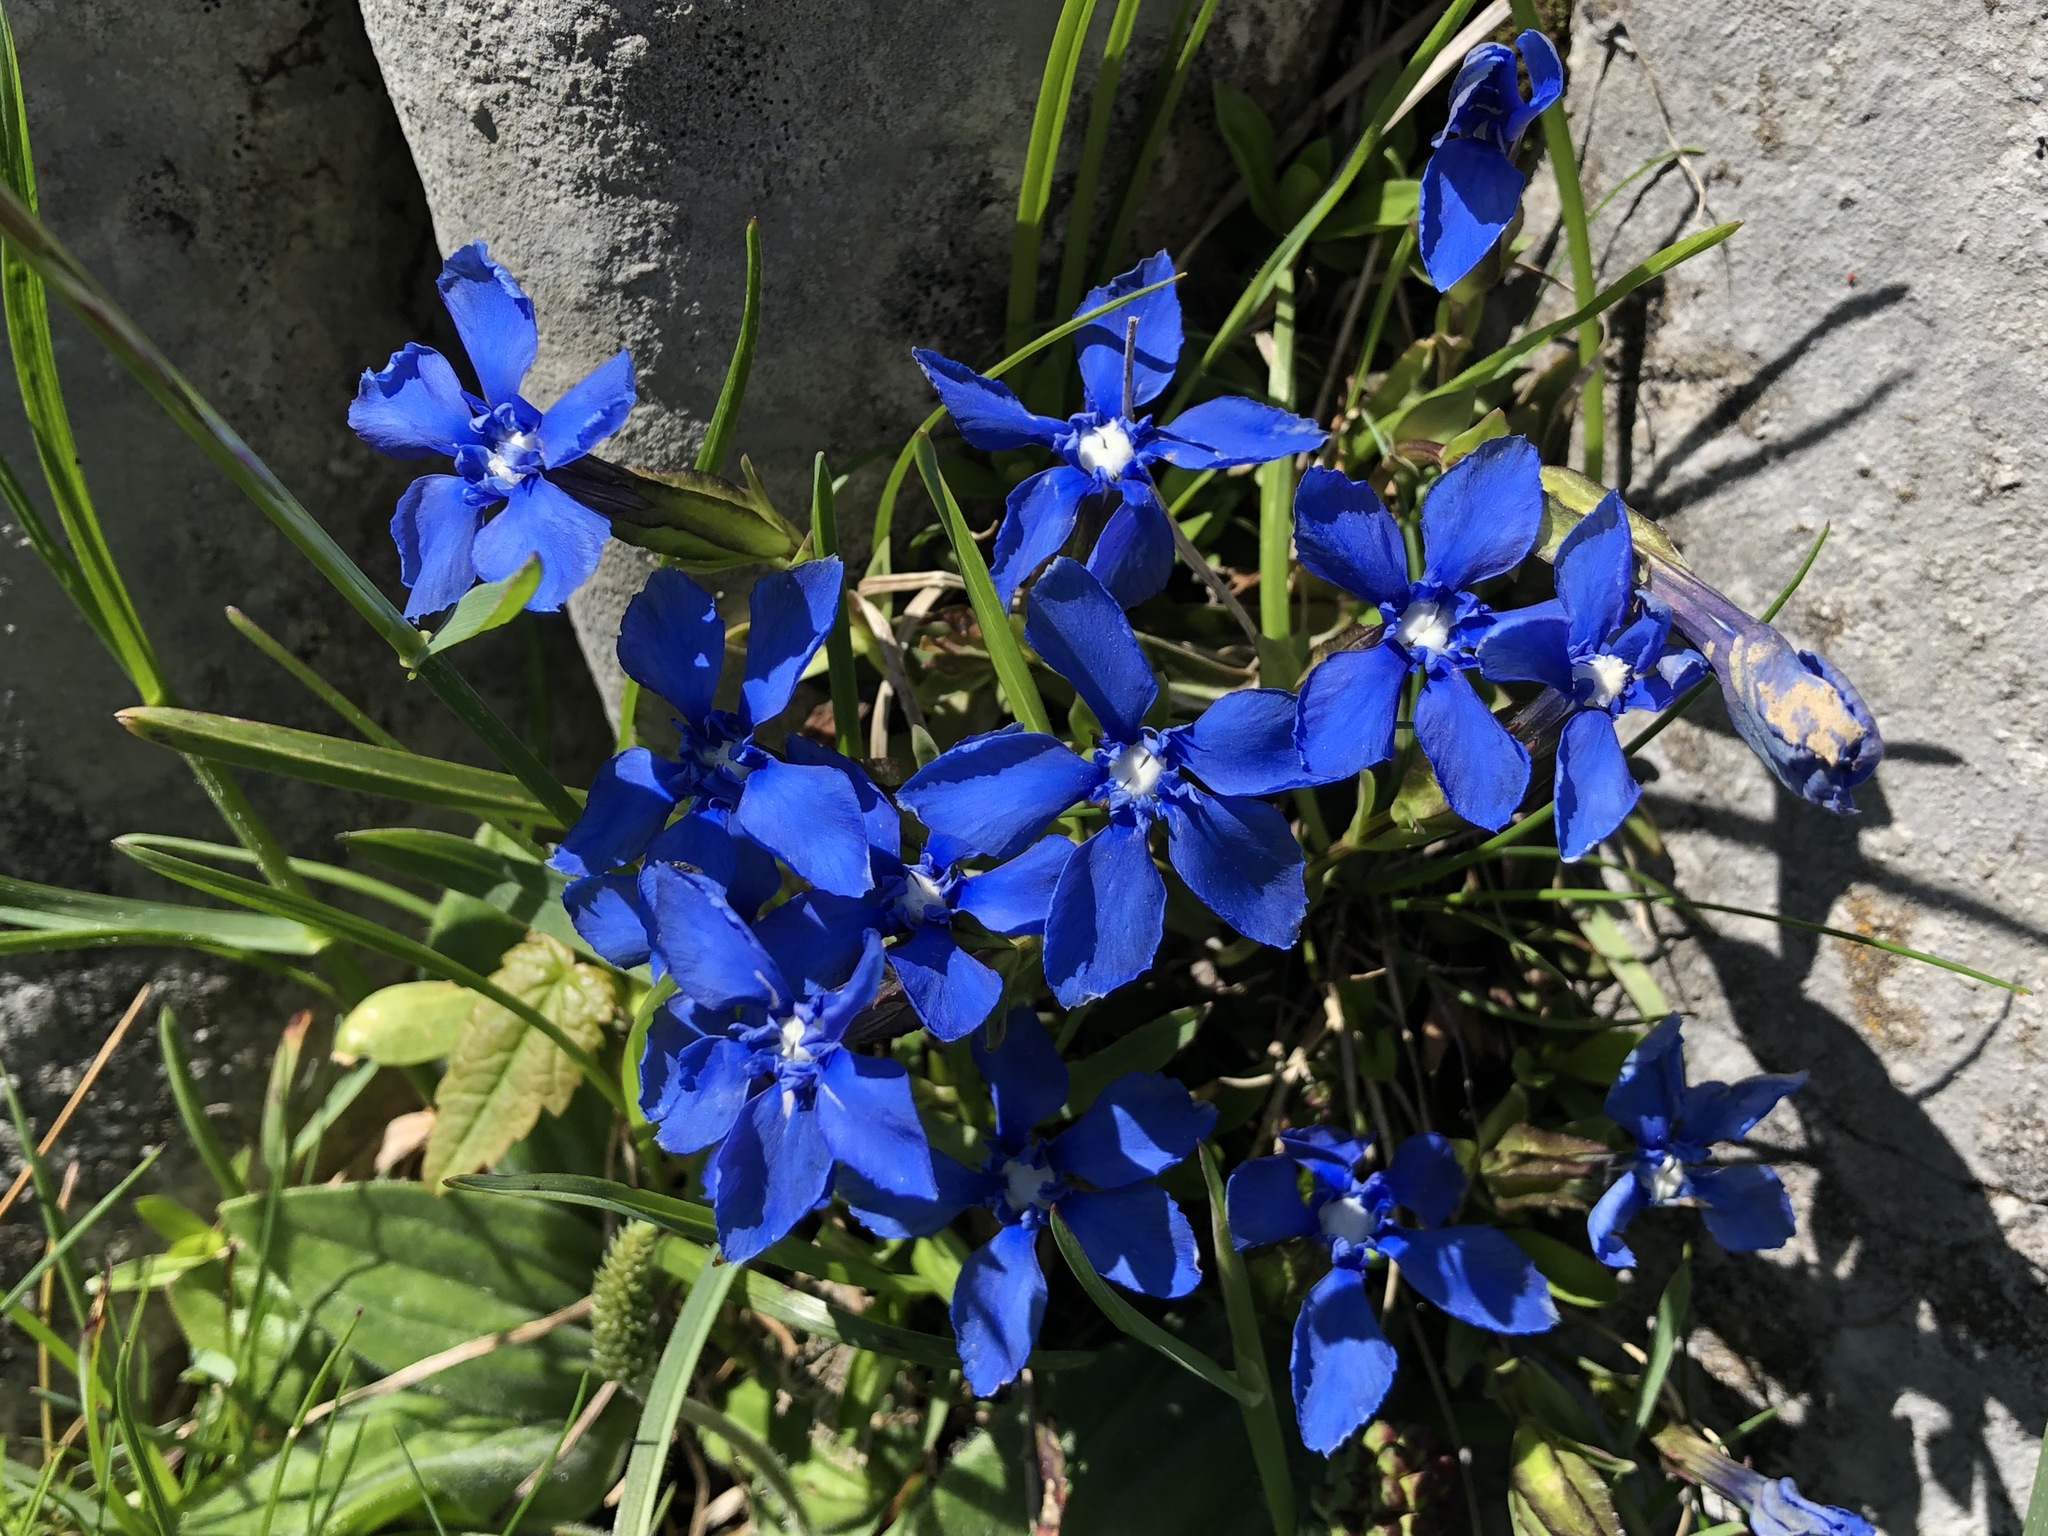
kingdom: Plantae
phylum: Tracheophyta
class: Magnoliopsida
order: Gentianales
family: Gentianaceae
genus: Gentiana
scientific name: Gentiana verna
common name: Spring gentian
